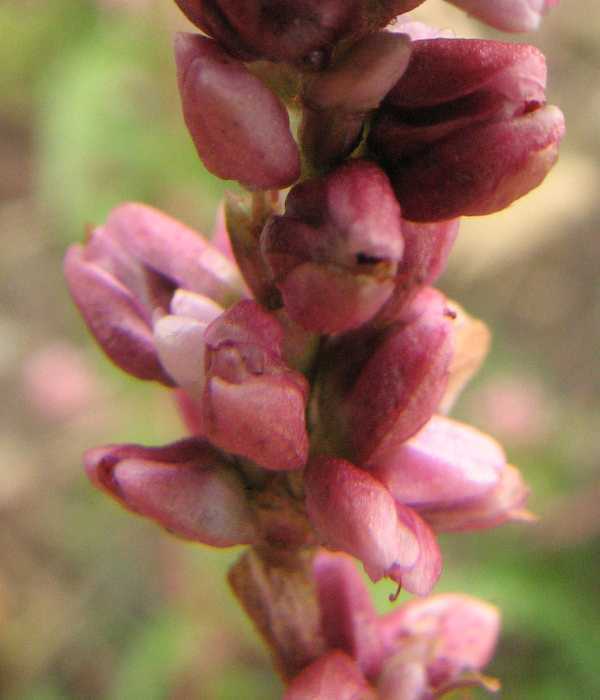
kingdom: Plantae
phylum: Tracheophyta
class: Magnoliopsida
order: Caryophyllales
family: Polygonaceae
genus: Persicaria
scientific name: Persicaria pensylvanica
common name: Pinkweed
